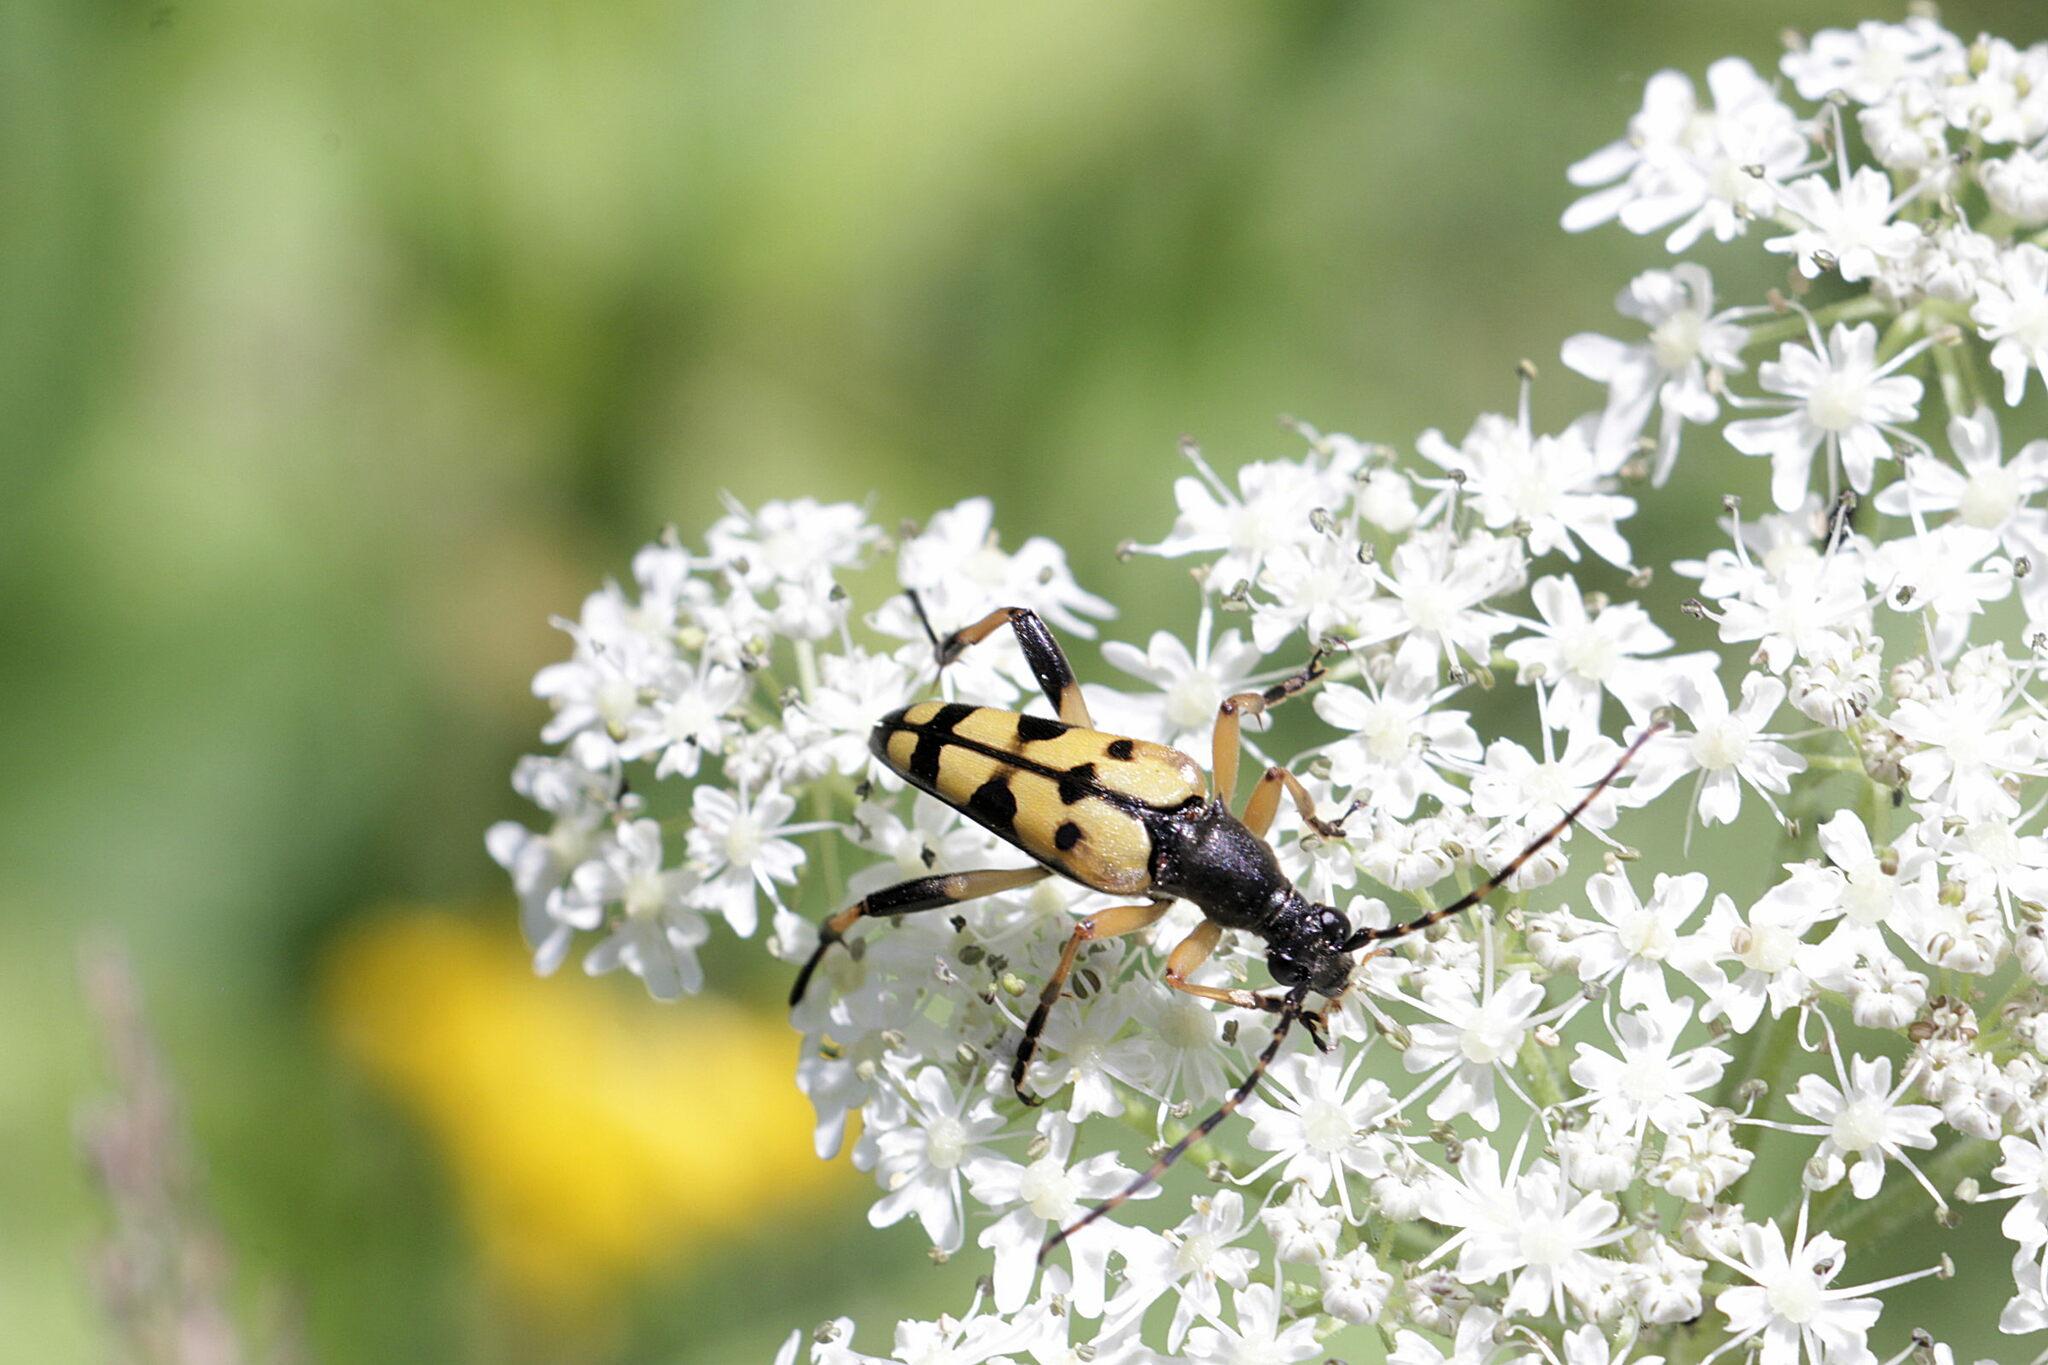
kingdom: Animalia
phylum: Arthropoda
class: Insecta
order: Coleoptera
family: Cerambycidae
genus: Rutpela
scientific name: Rutpela maculata
